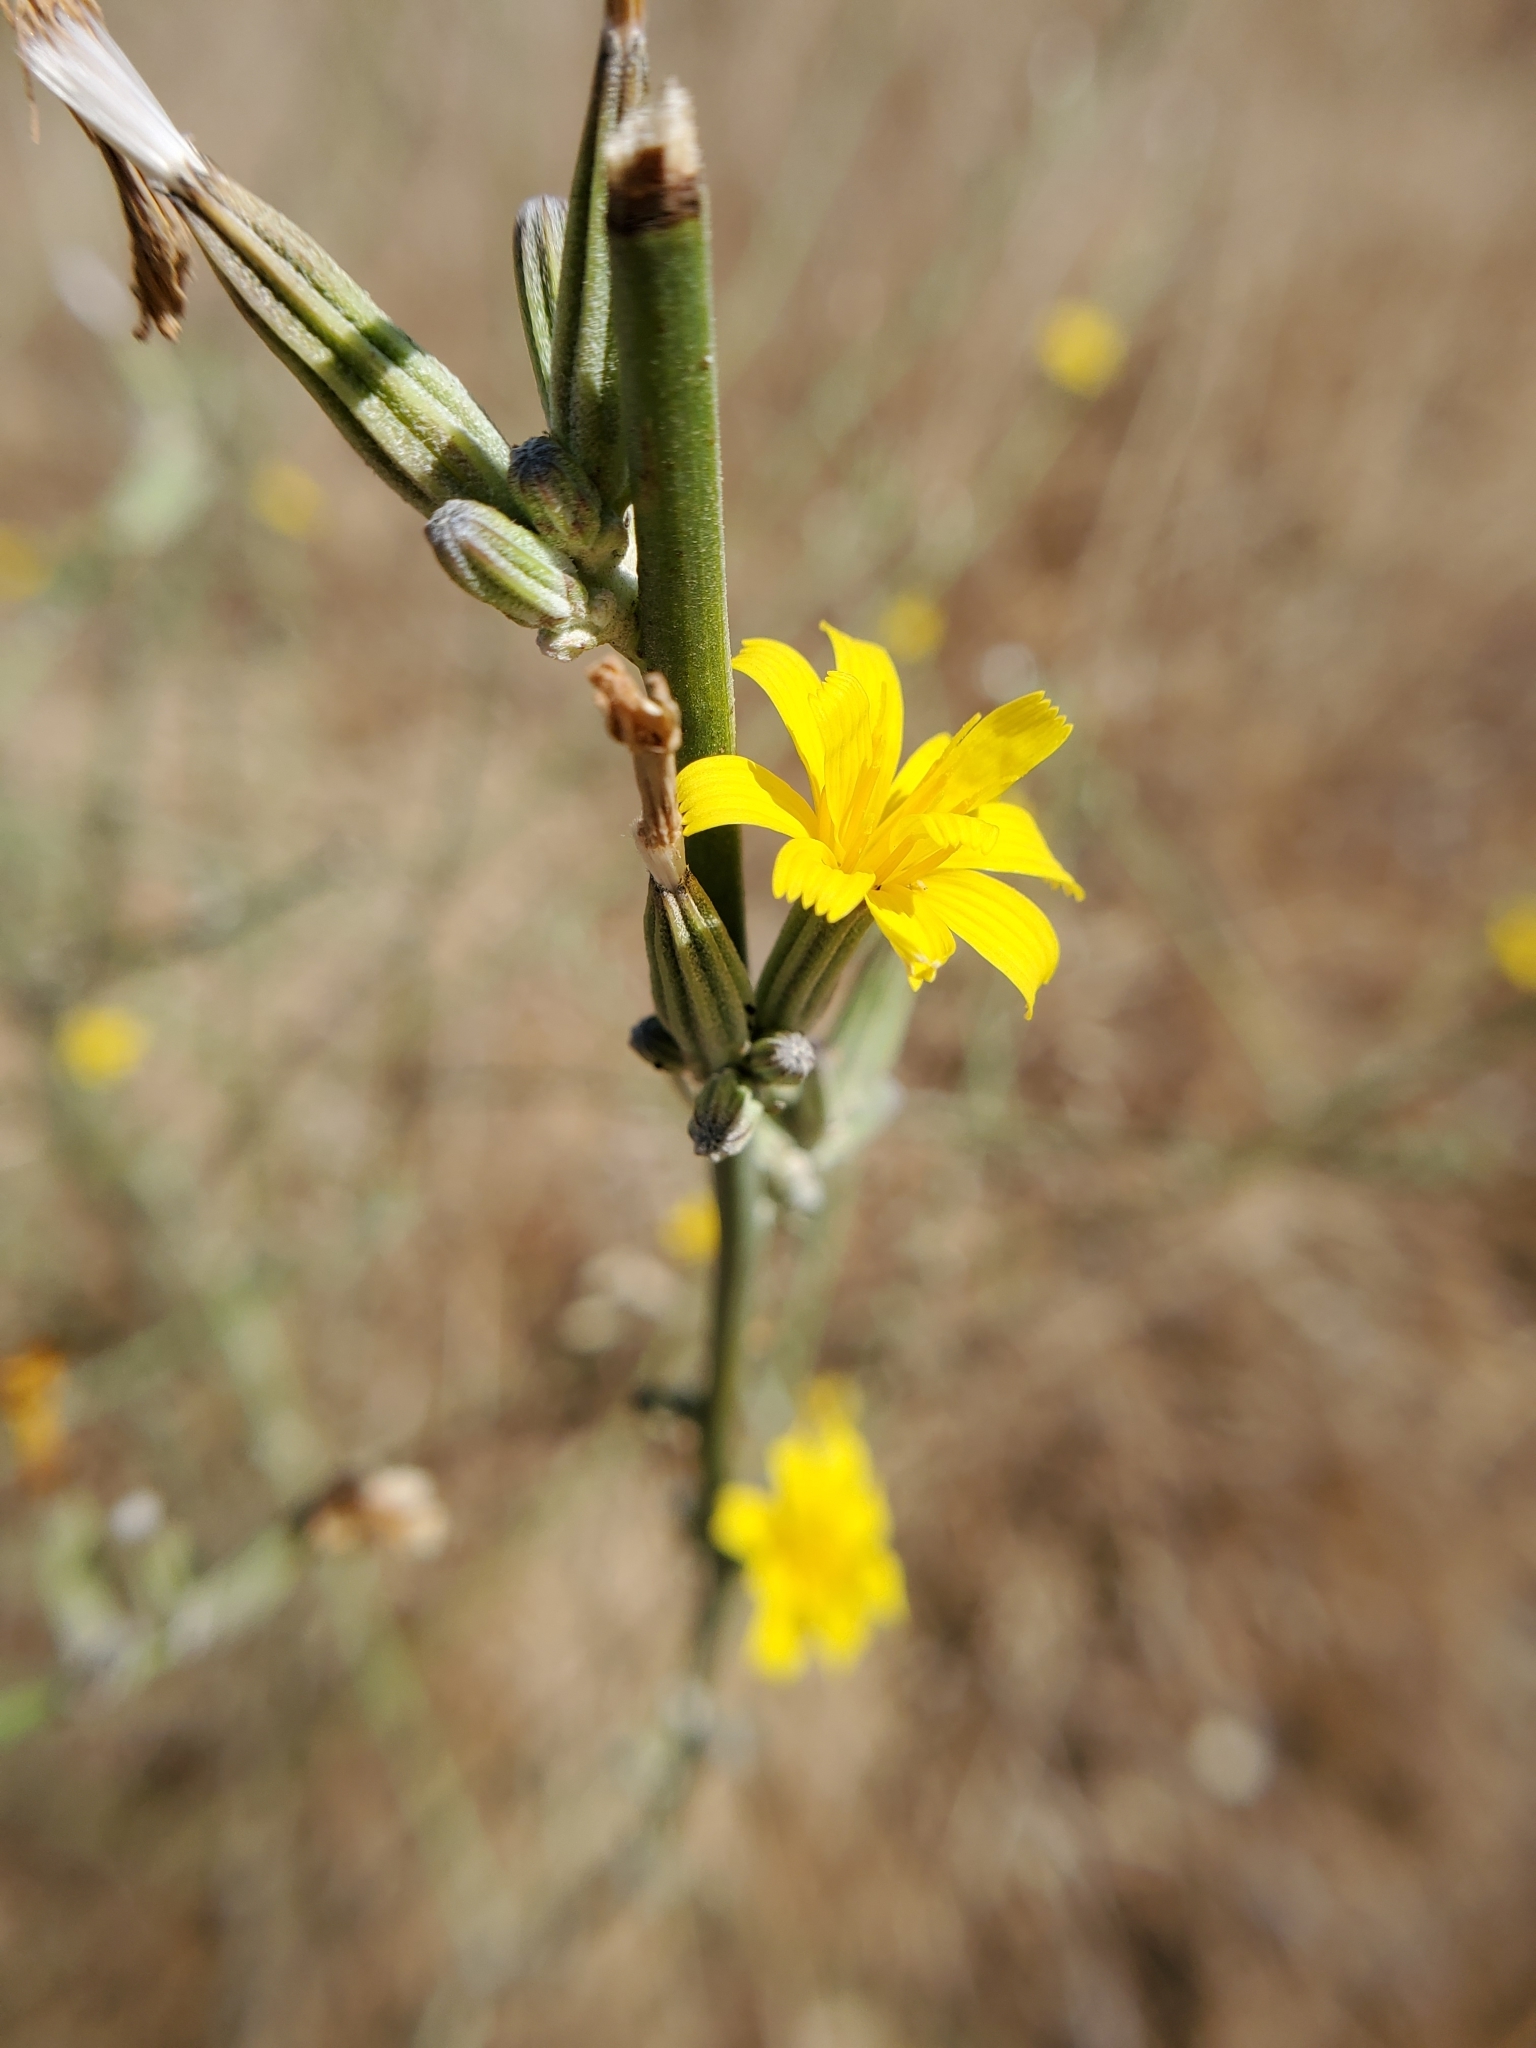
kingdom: Plantae
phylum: Tracheophyta
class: Magnoliopsida
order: Asterales
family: Asteraceae
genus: Chondrilla
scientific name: Chondrilla juncea
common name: Skeleton weed
